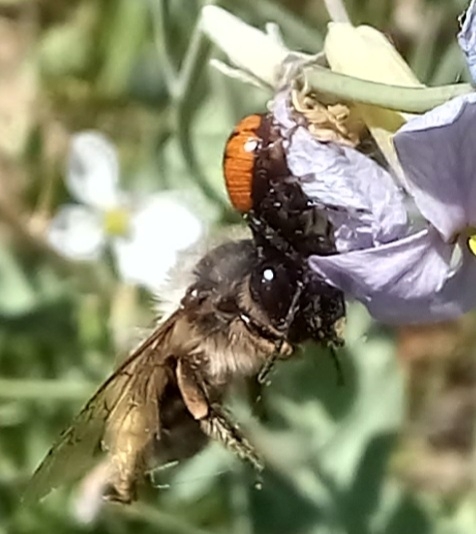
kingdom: Animalia
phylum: Arthropoda
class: Arachnida
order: Araneae
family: Thomisidae
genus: Synema
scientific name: Synema globosum
